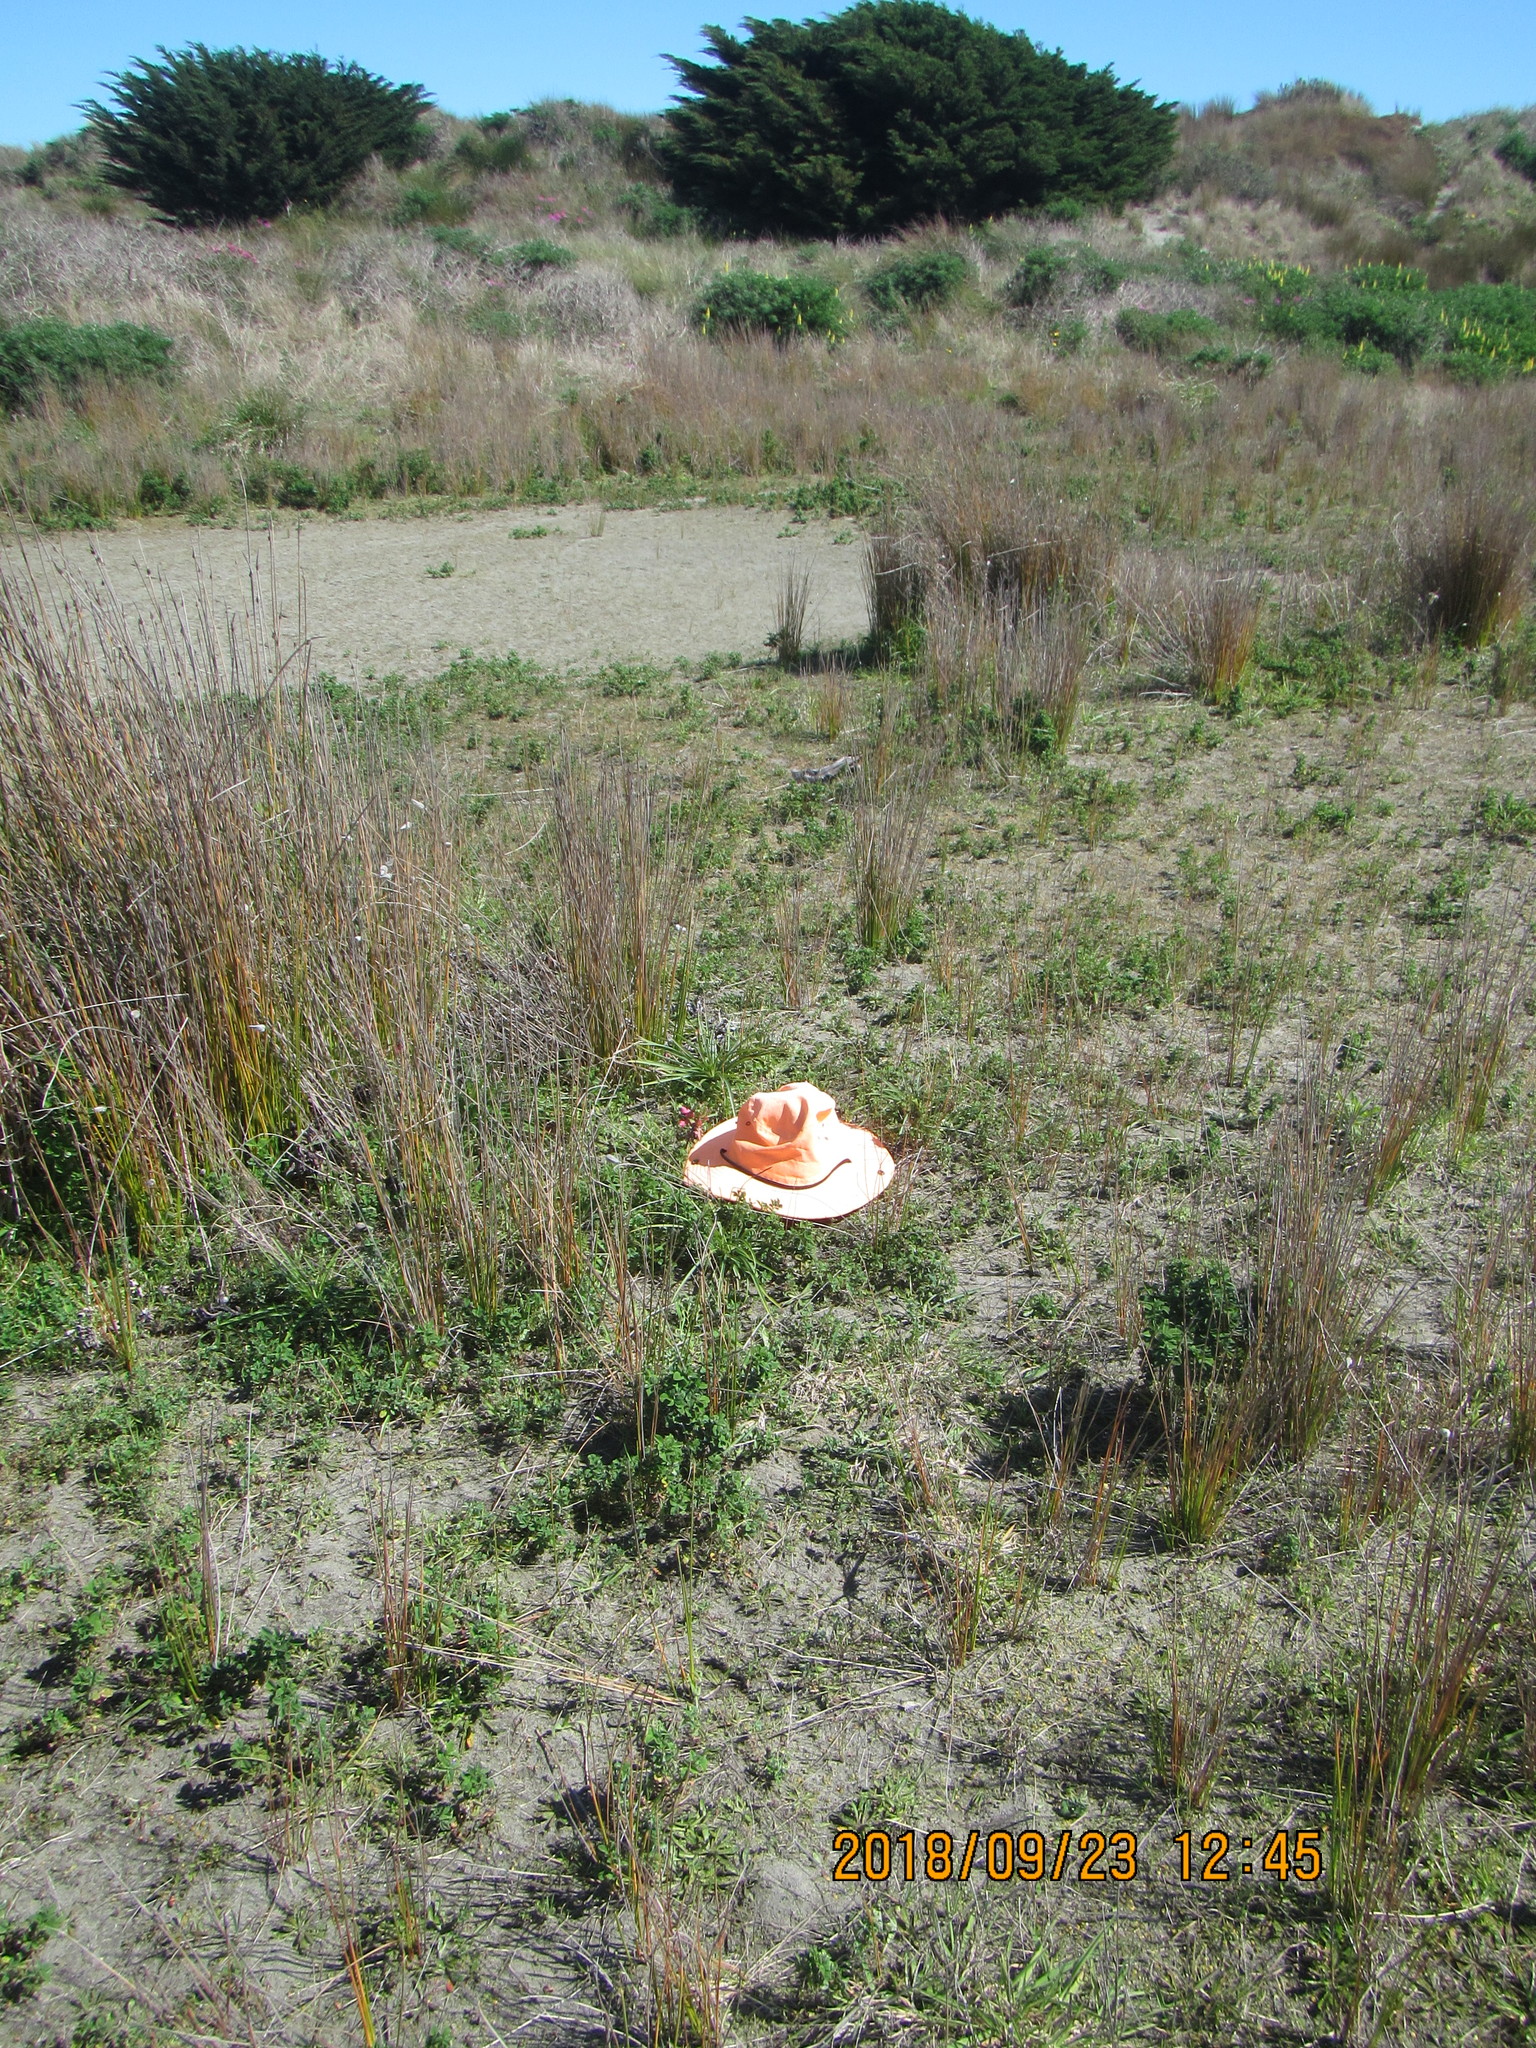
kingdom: Plantae
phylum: Tracheophyta
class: Liliopsida
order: Liliales
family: Liliaceae
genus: Lilium
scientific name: Lilium formosanum
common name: Formosa lily
